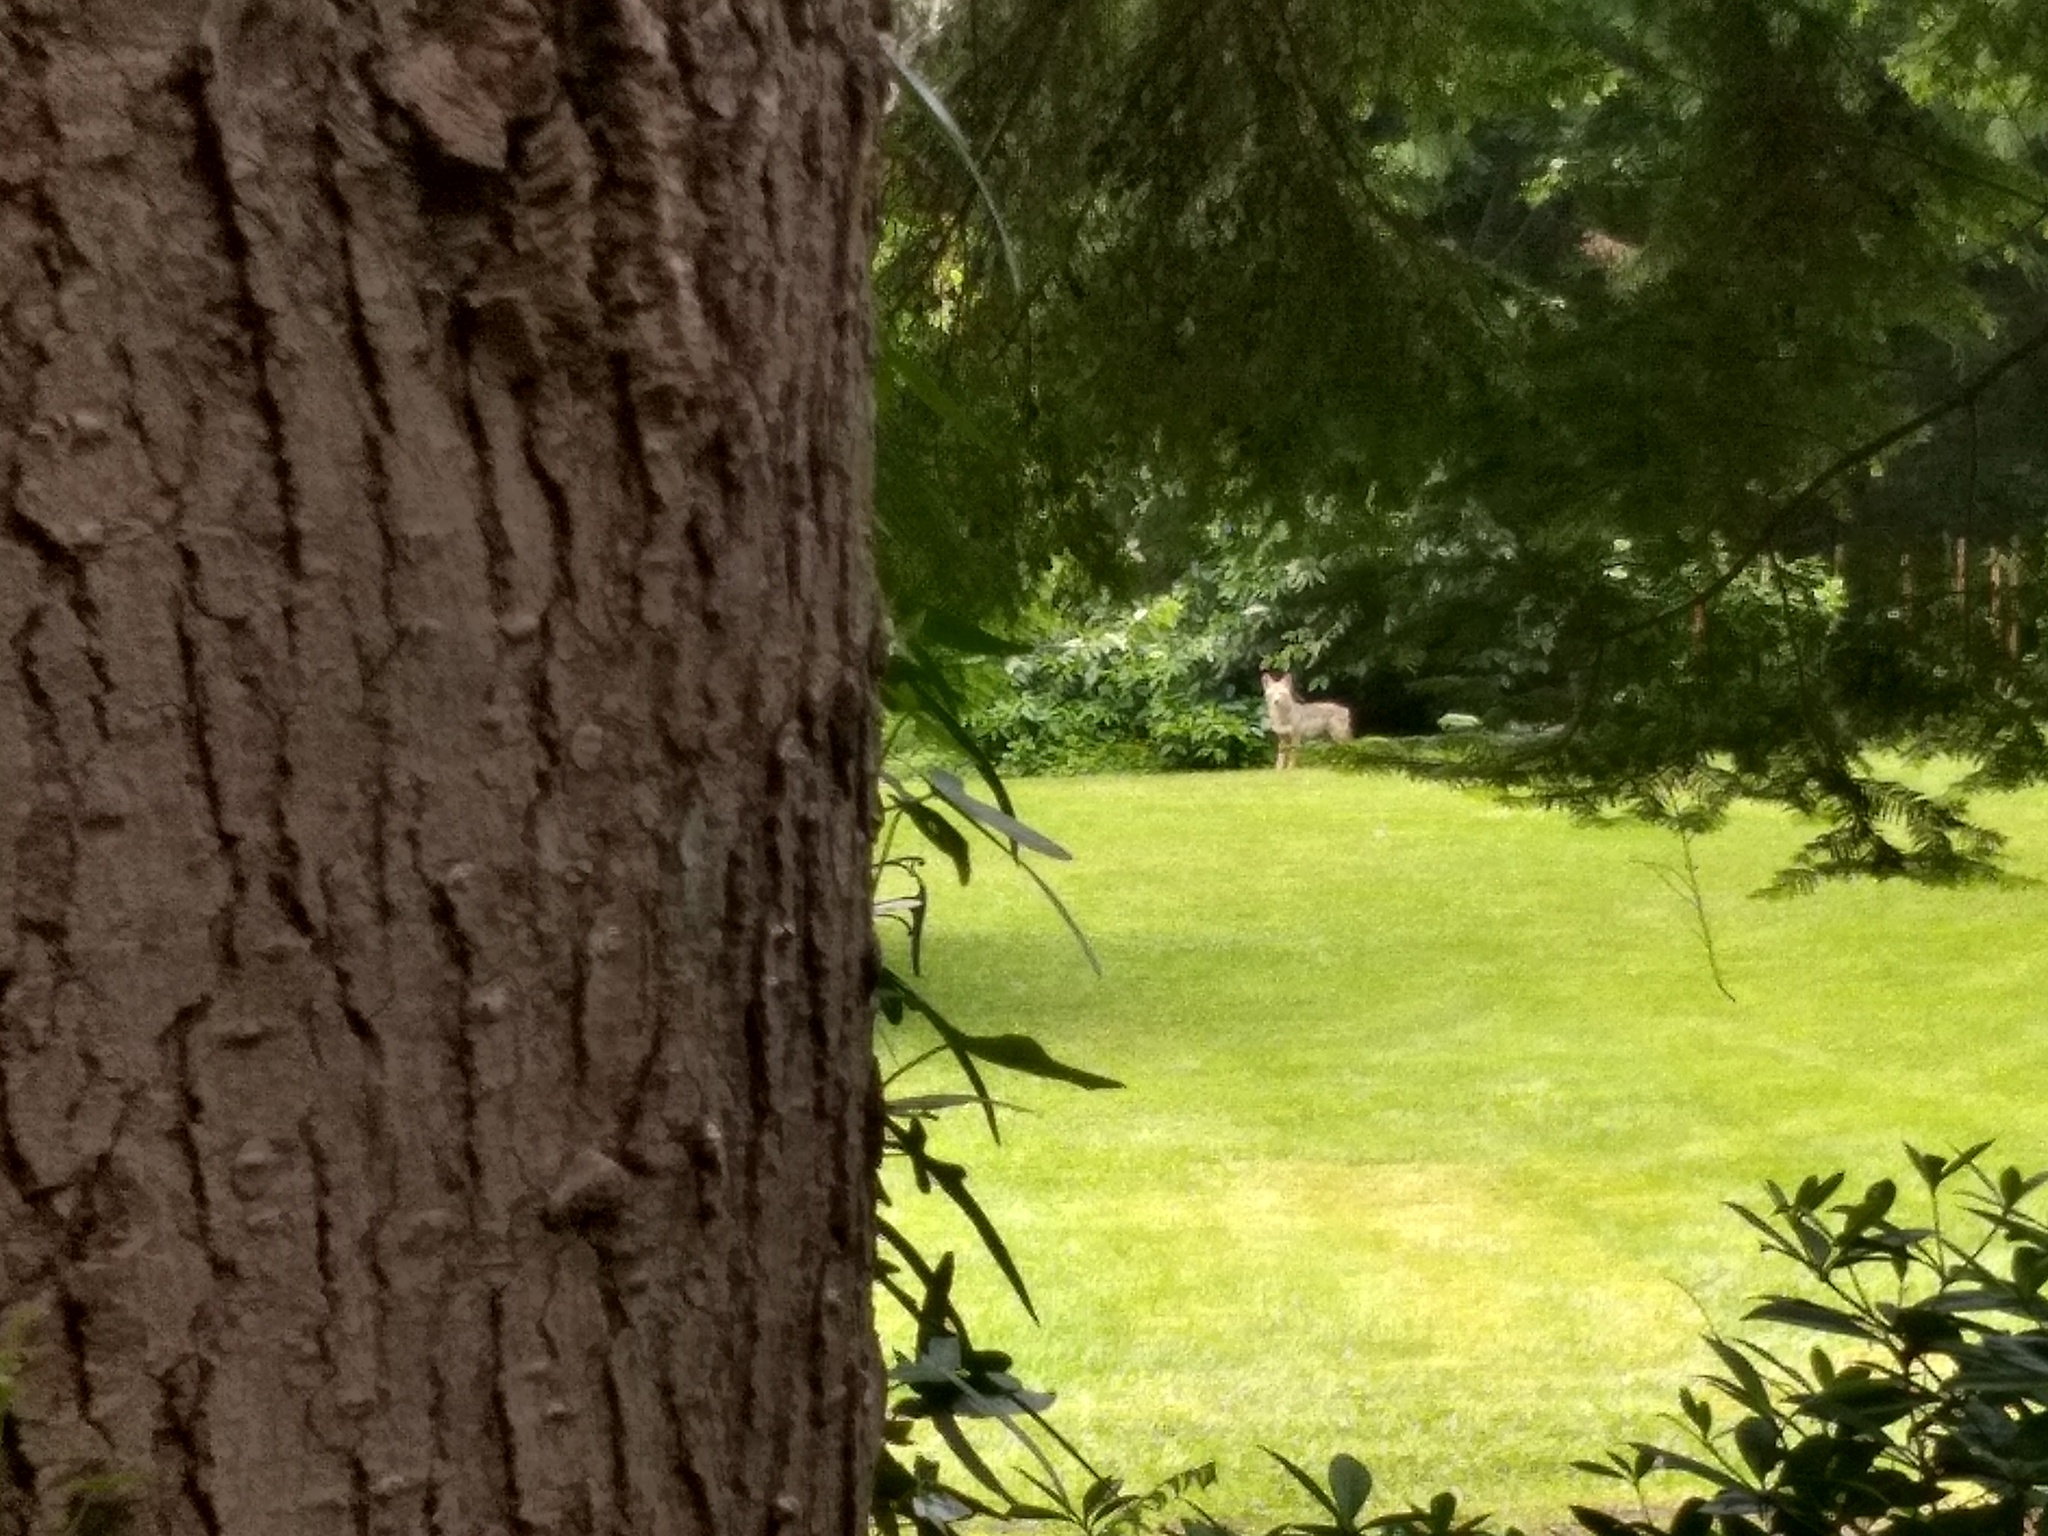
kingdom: Animalia
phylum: Chordata
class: Mammalia
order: Carnivora
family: Canidae
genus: Canis
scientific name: Canis latrans
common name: Coyote
